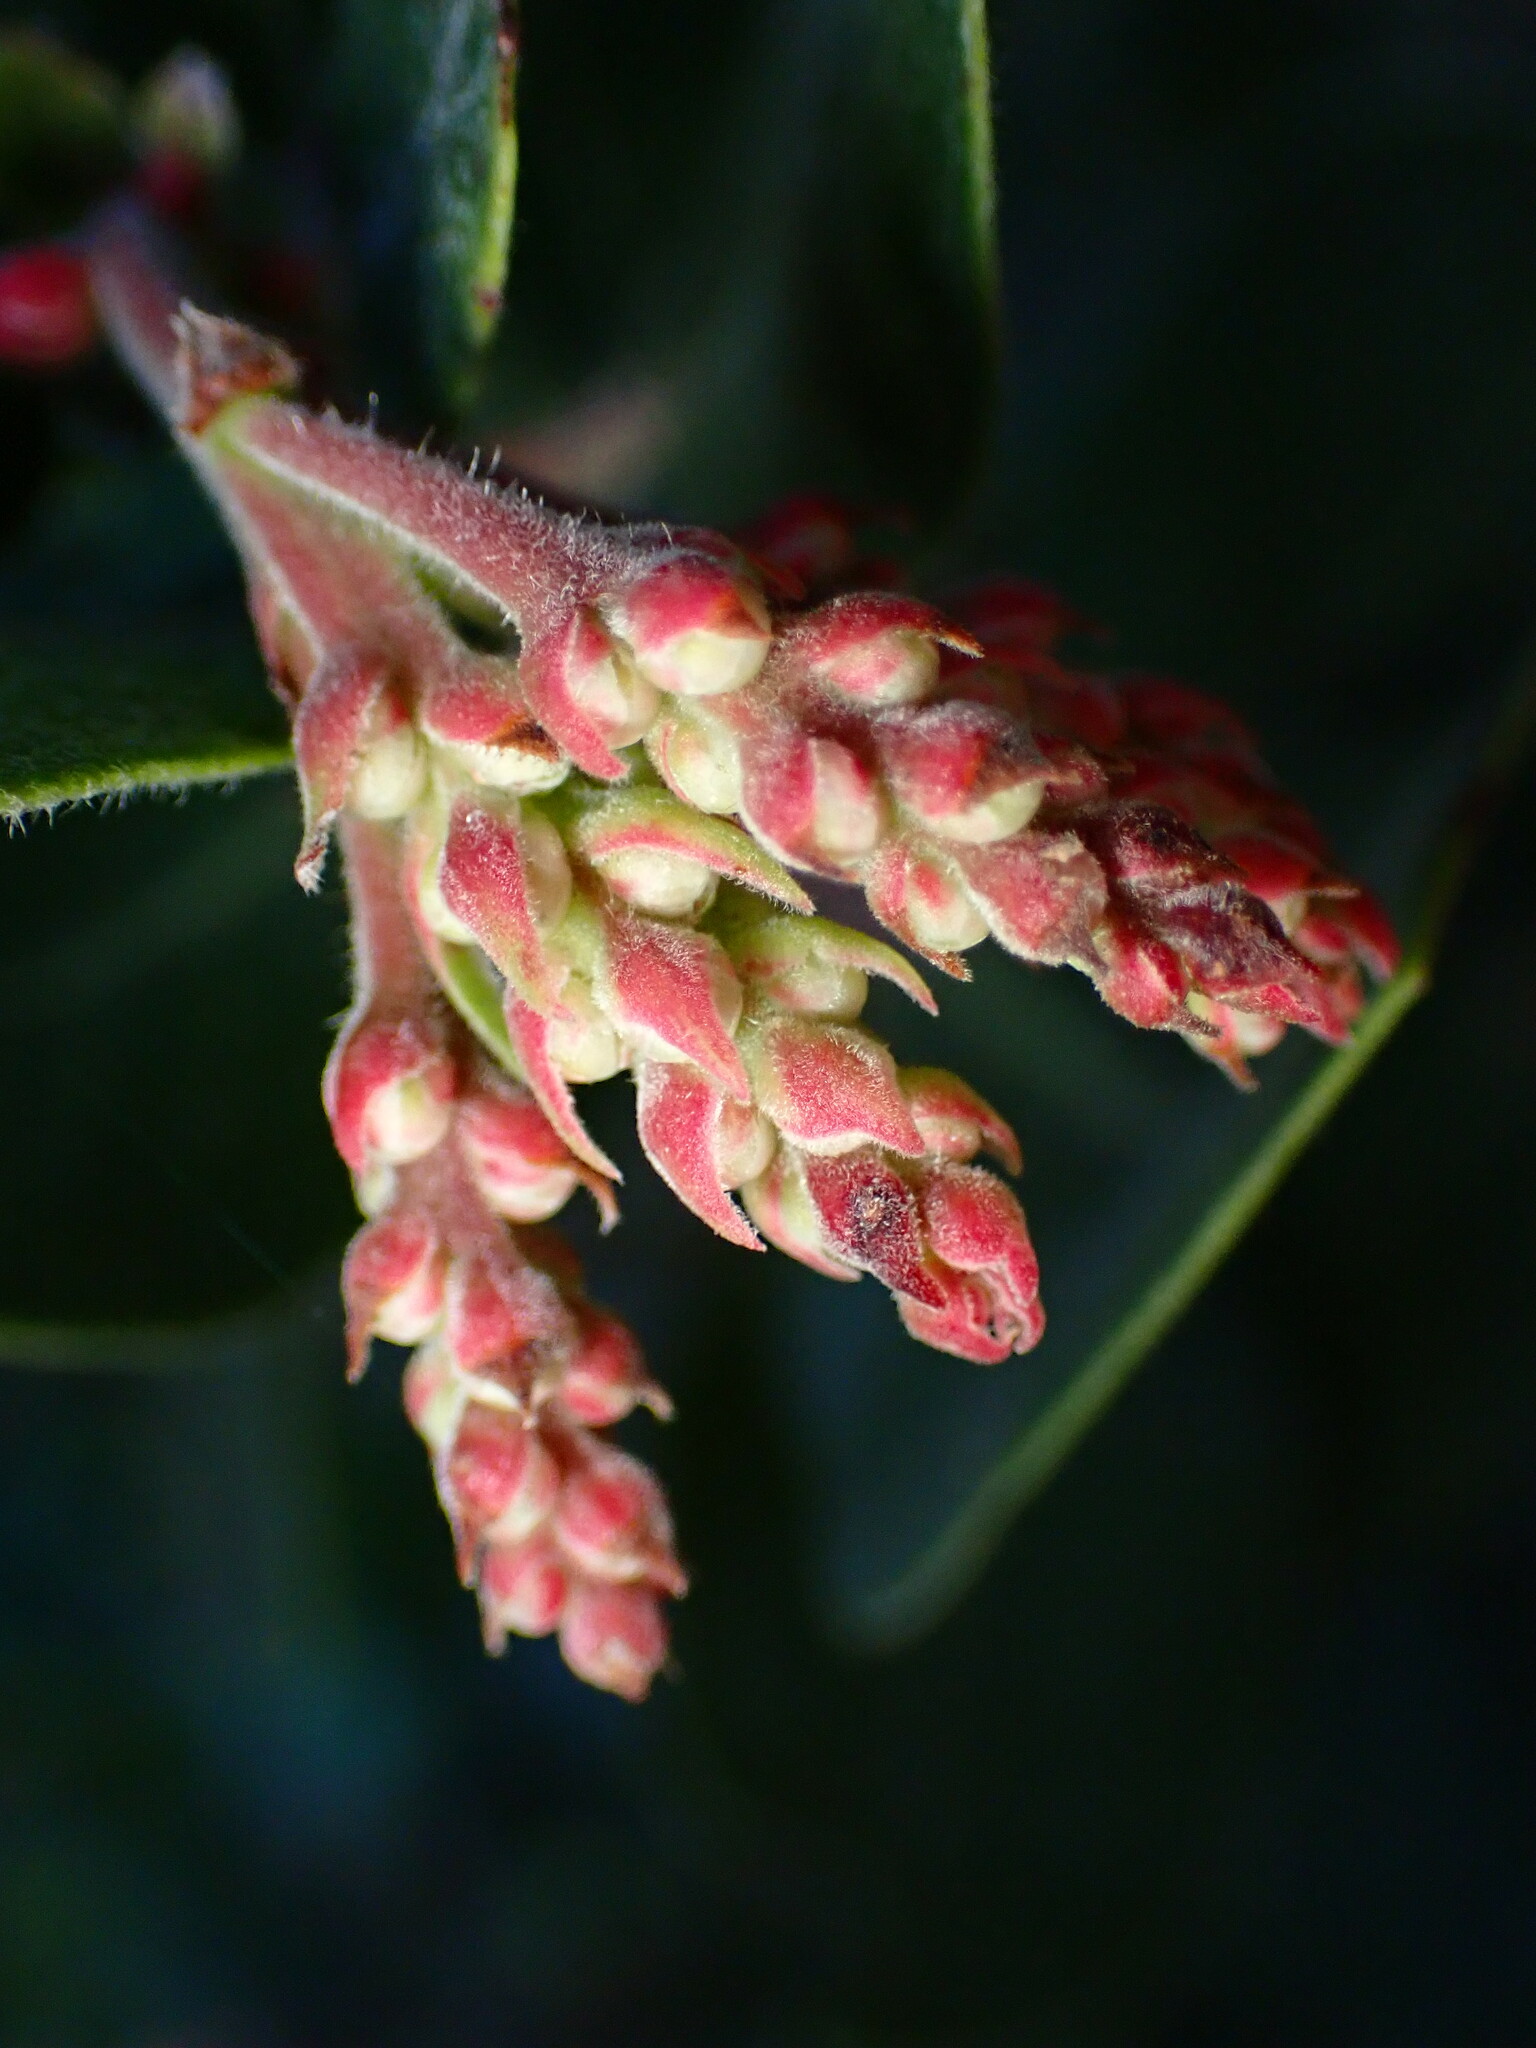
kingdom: Plantae
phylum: Tracheophyta
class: Magnoliopsida
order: Ericales
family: Ericaceae
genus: Arctostaphylos
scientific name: Arctostaphylos crustacea
